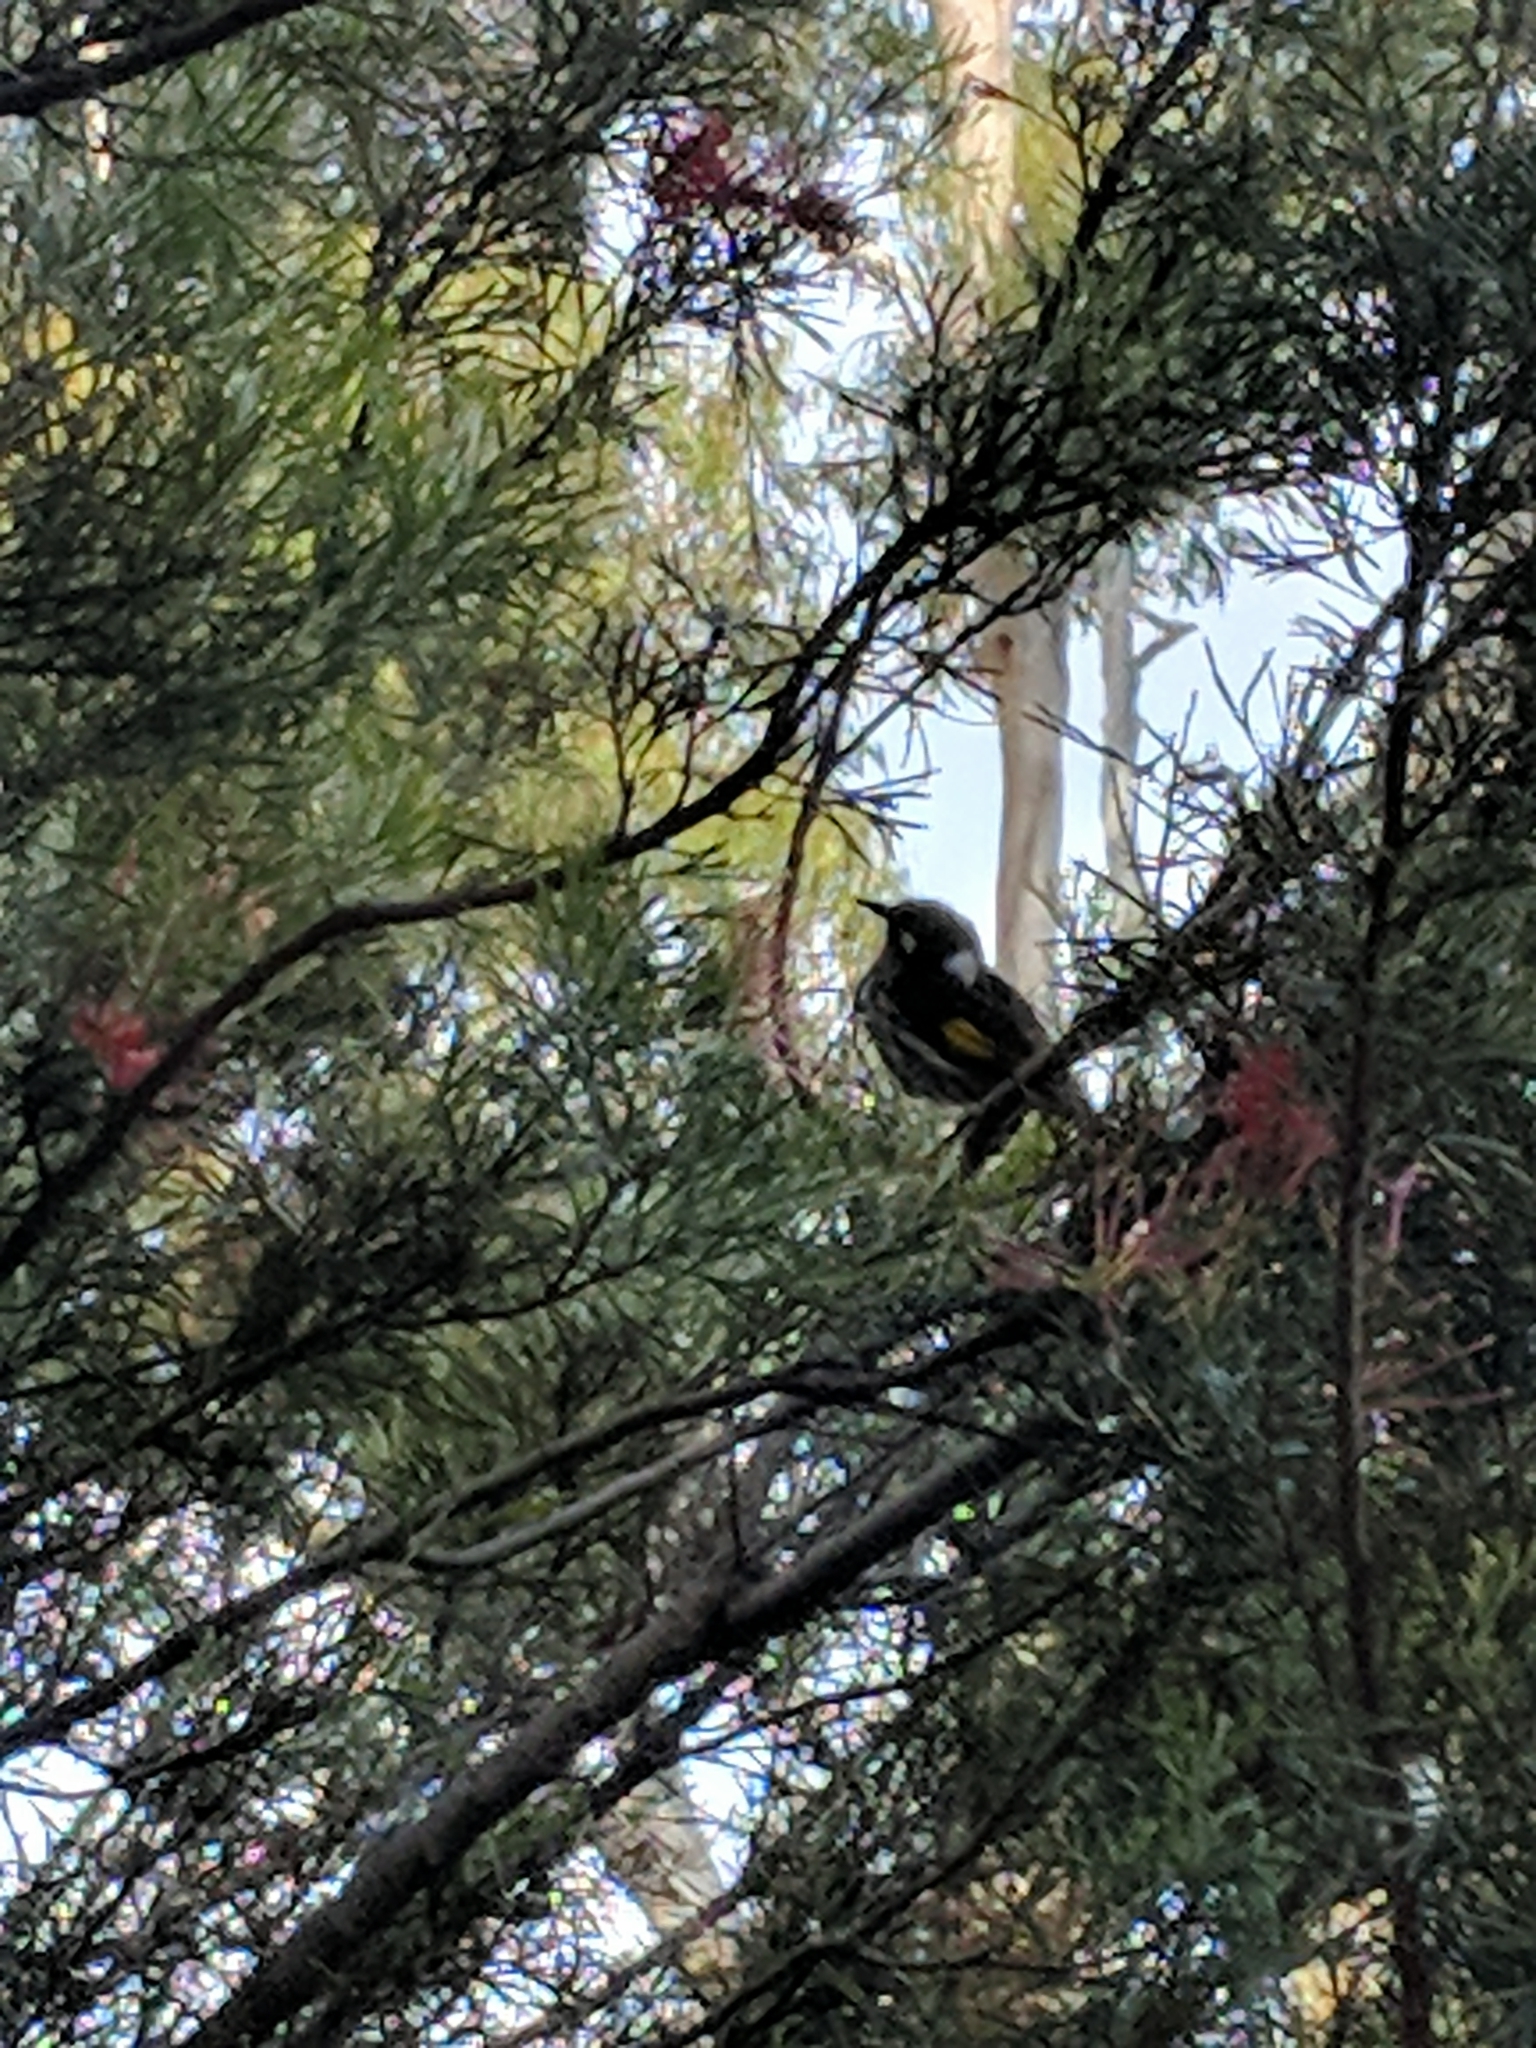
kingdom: Animalia
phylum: Chordata
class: Aves
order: Passeriformes
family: Meliphagidae
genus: Phylidonyris
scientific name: Phylidonyris novaehollandiae
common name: New holland honeyeater
